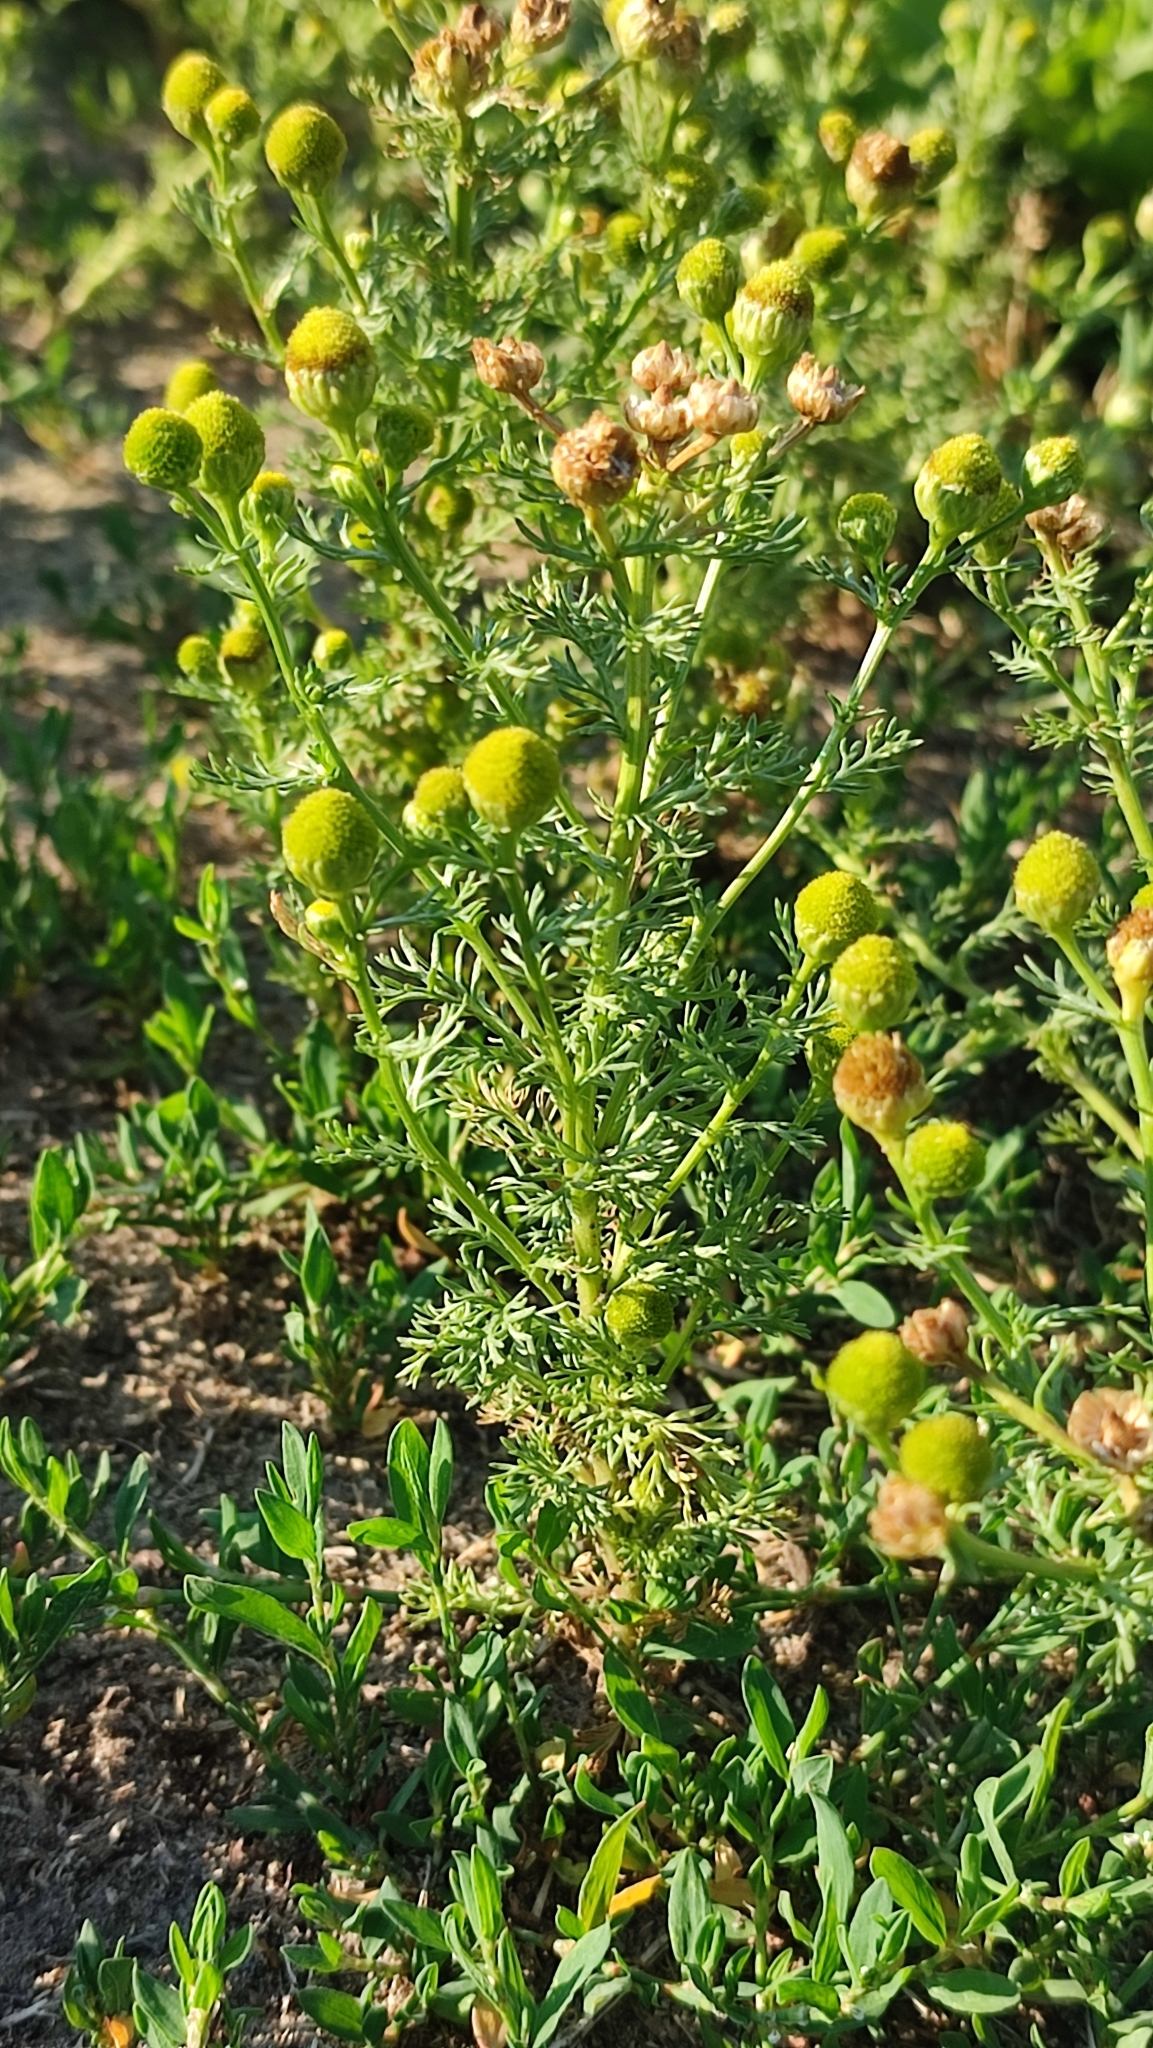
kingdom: Plantae
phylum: Tracheophyta
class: Magnoliopsida
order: Asterales
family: Asteraceae
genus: Matricaria
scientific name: Matricaria discoidea
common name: Disc mayweed
